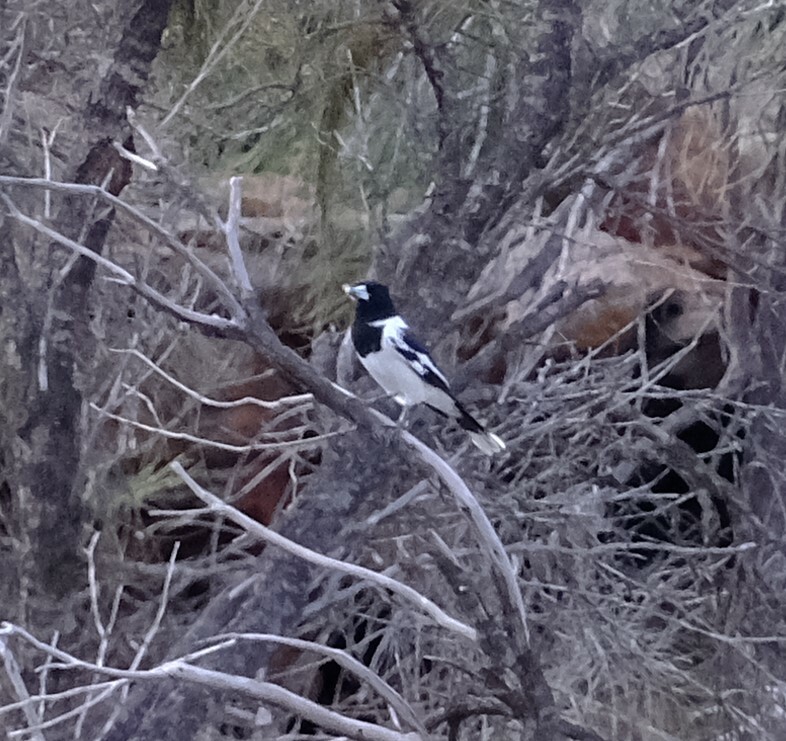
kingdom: Animalia
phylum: Chordata
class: Aves
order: Passeriformes
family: Cracticidae
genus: Cracticus
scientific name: Cracticus nigrogularis
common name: Pied butcherbird
